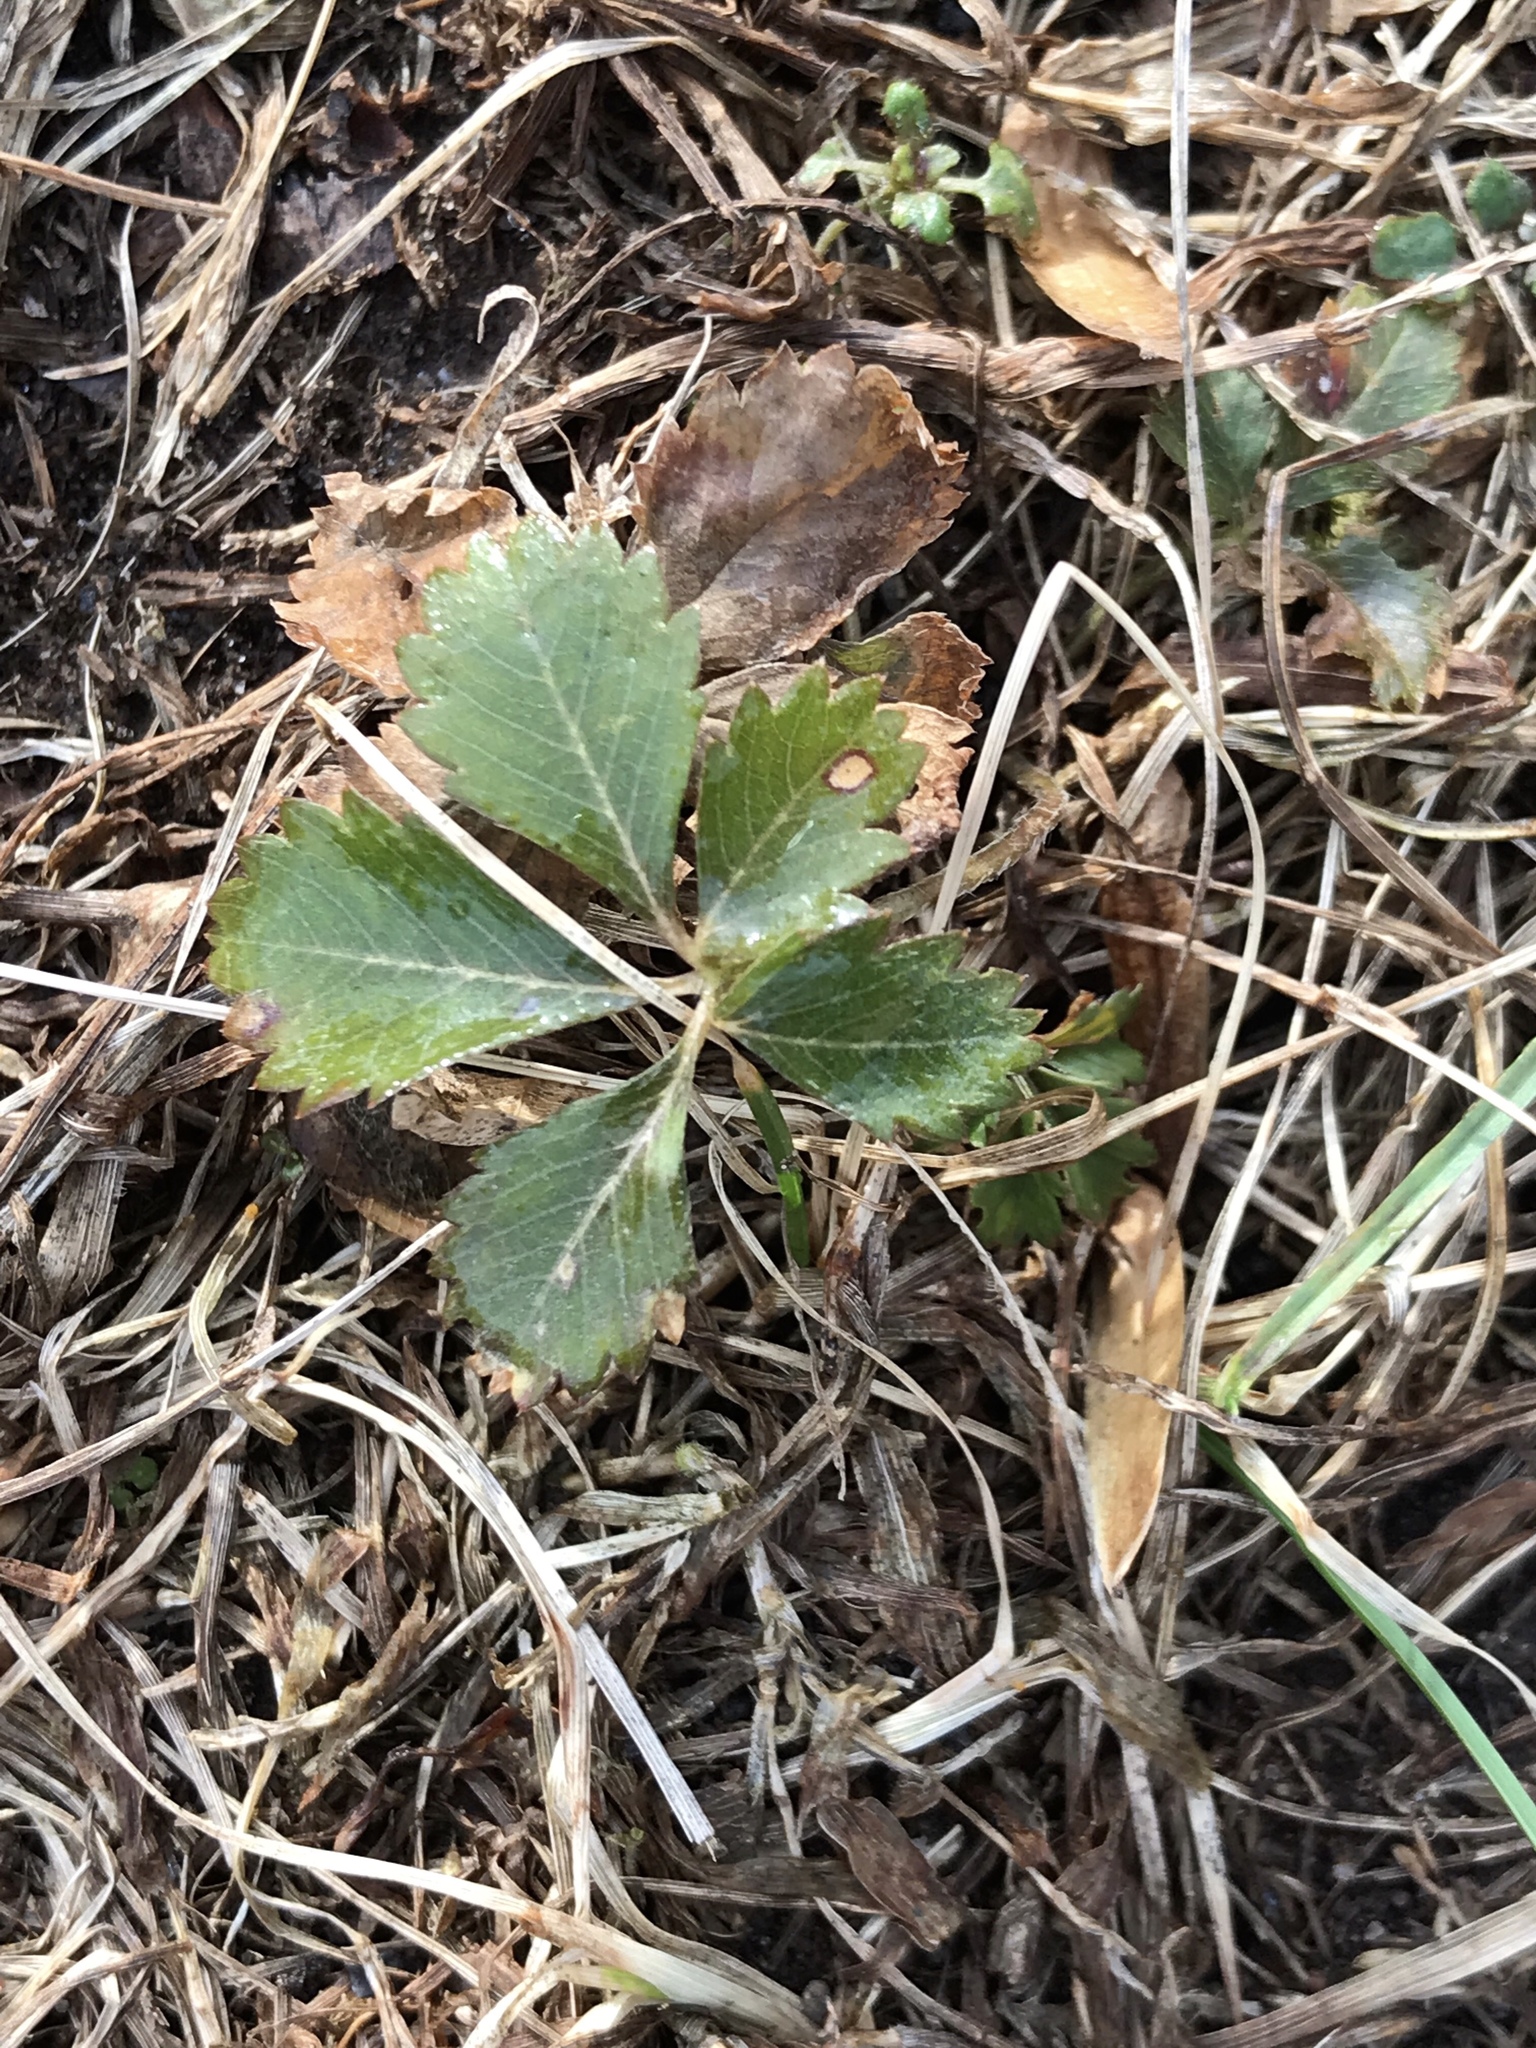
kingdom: Plantae
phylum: Tracheophyta
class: Magnoliopsida
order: Rosales
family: Rosaceae
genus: Potentilla
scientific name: Potentilla canadensis
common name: Canada cinquefoil
